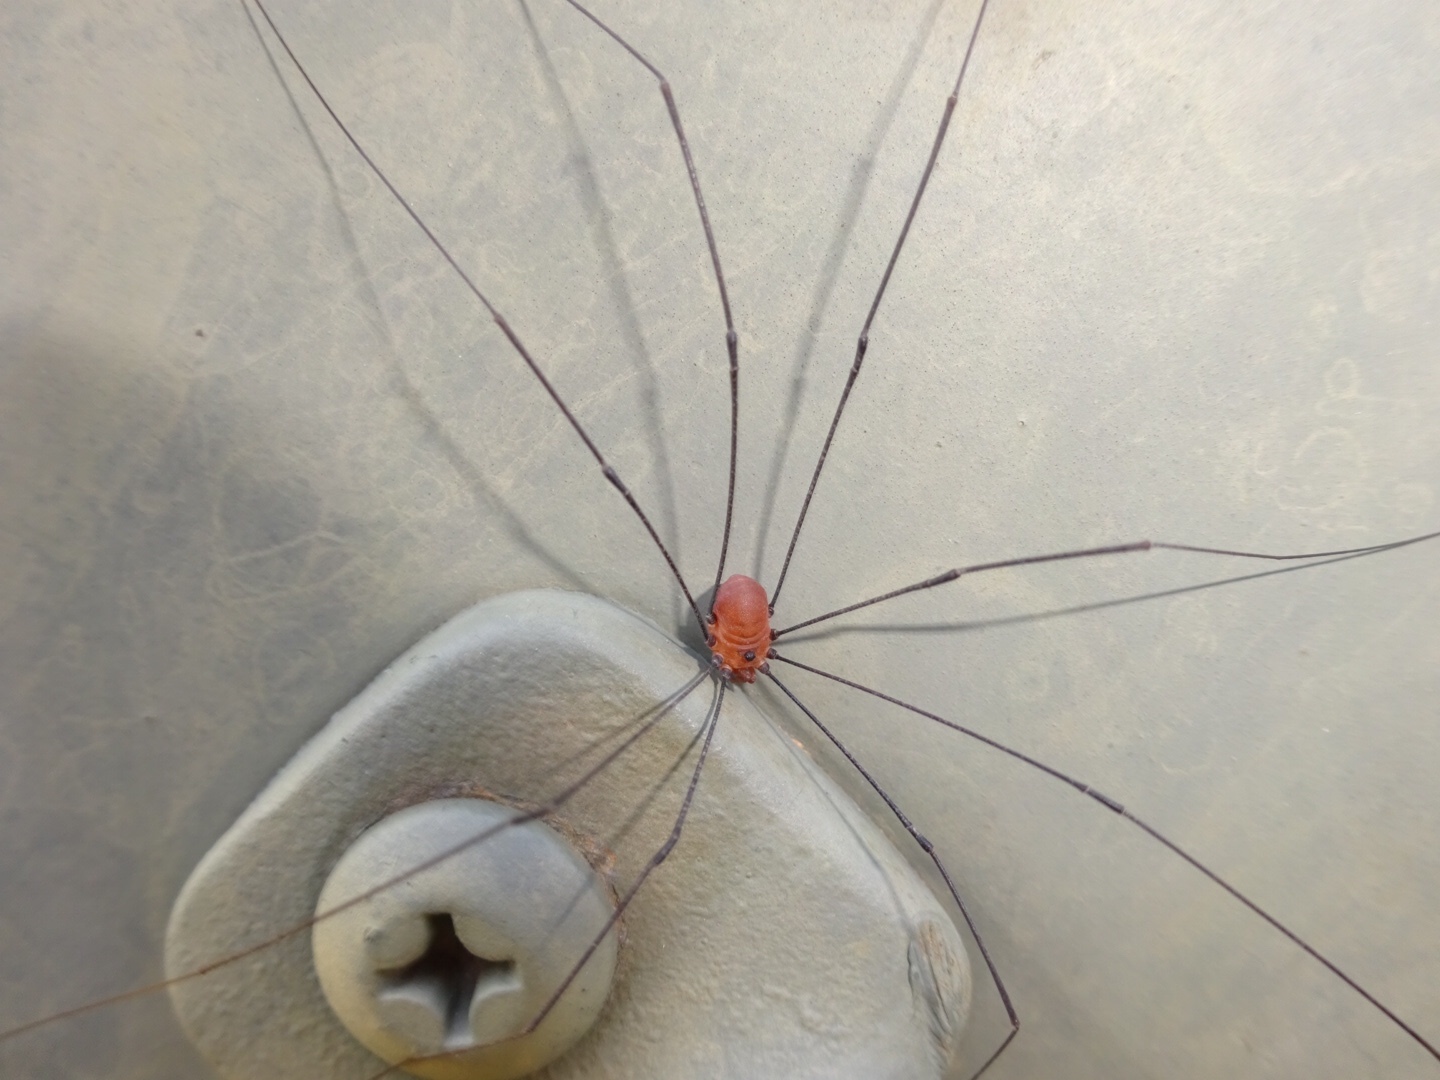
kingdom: Animalia
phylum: Arthropoda
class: Arachnida
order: Opiliones
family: Sclerosomatidae
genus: Leiobunum
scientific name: Leiobunum uxorium
